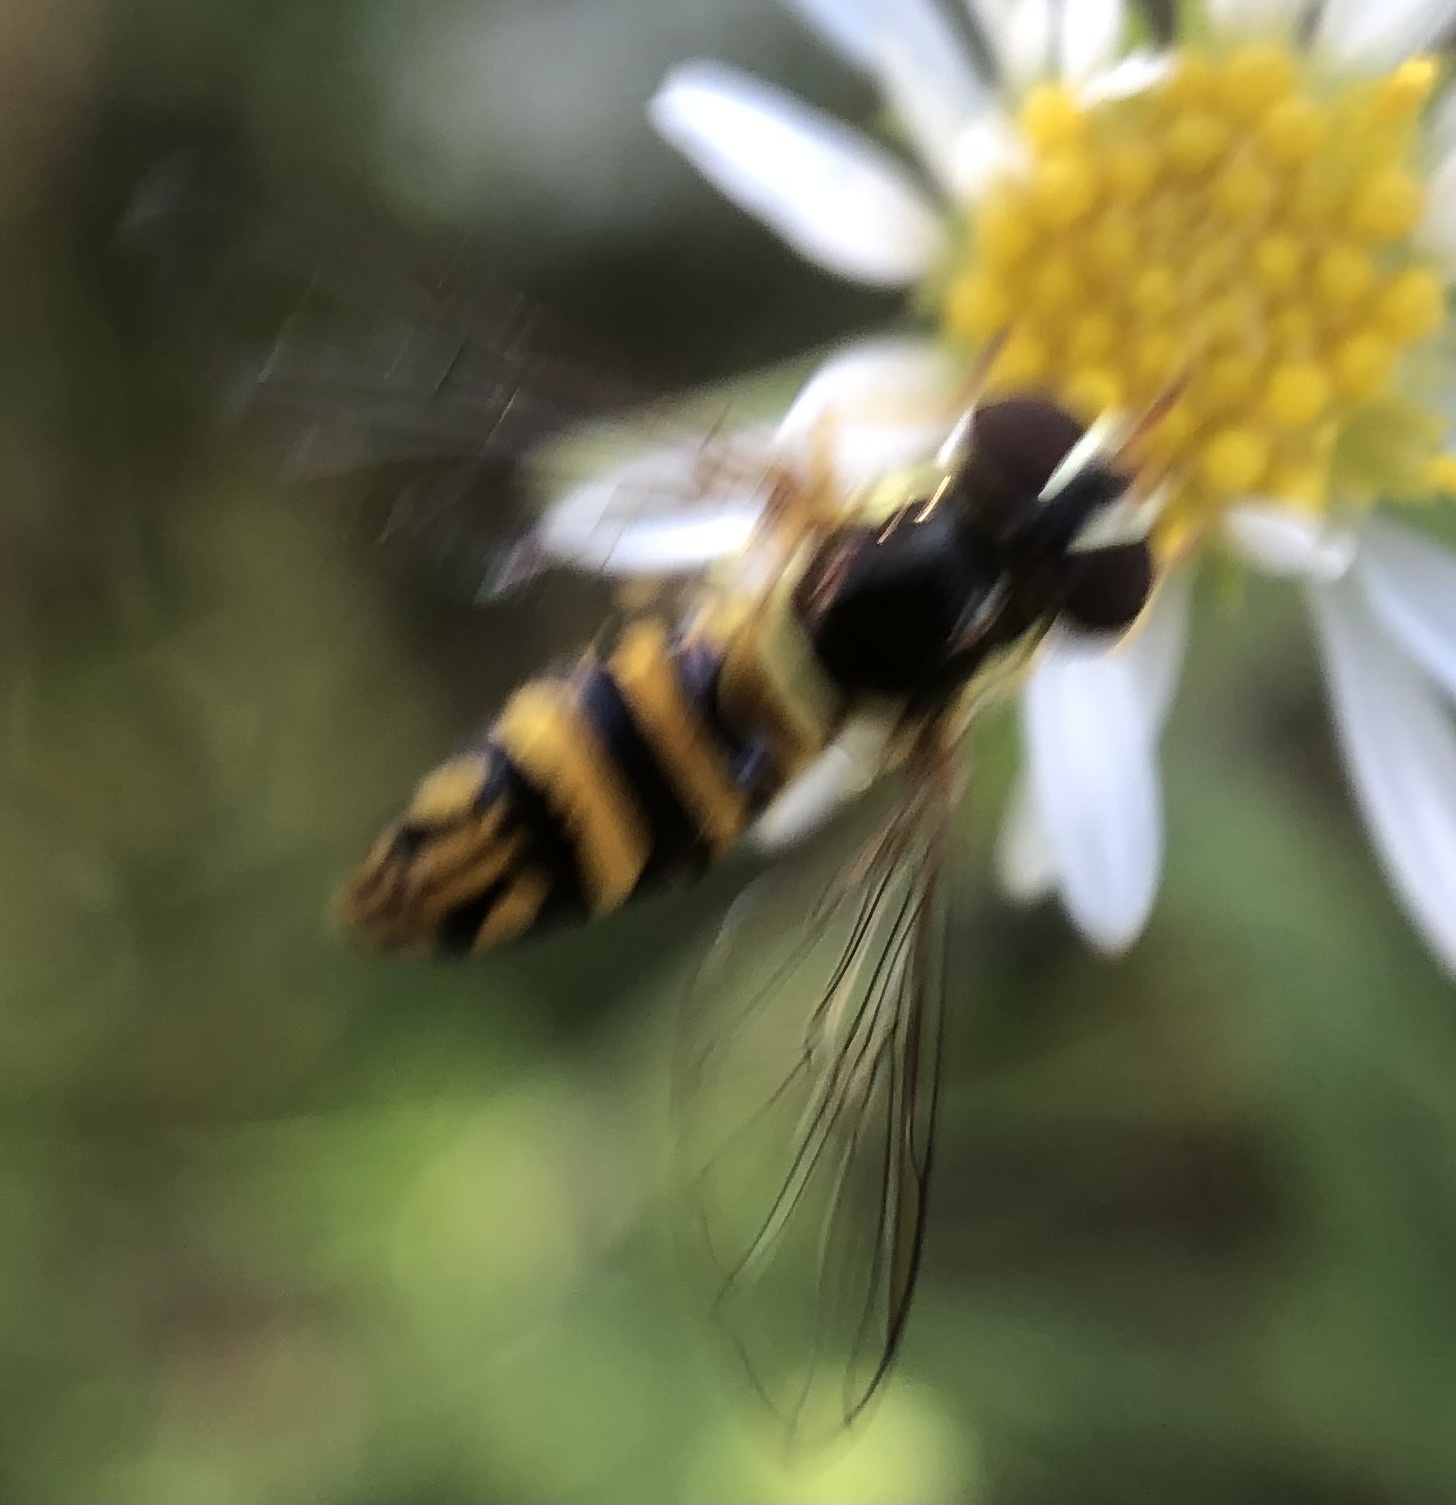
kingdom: Animalia
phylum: Arthropoda
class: Insecta
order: Diptera
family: Syrphidae
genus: Allograpta
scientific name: Allograpta obliqua
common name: Common oblique syrphid
